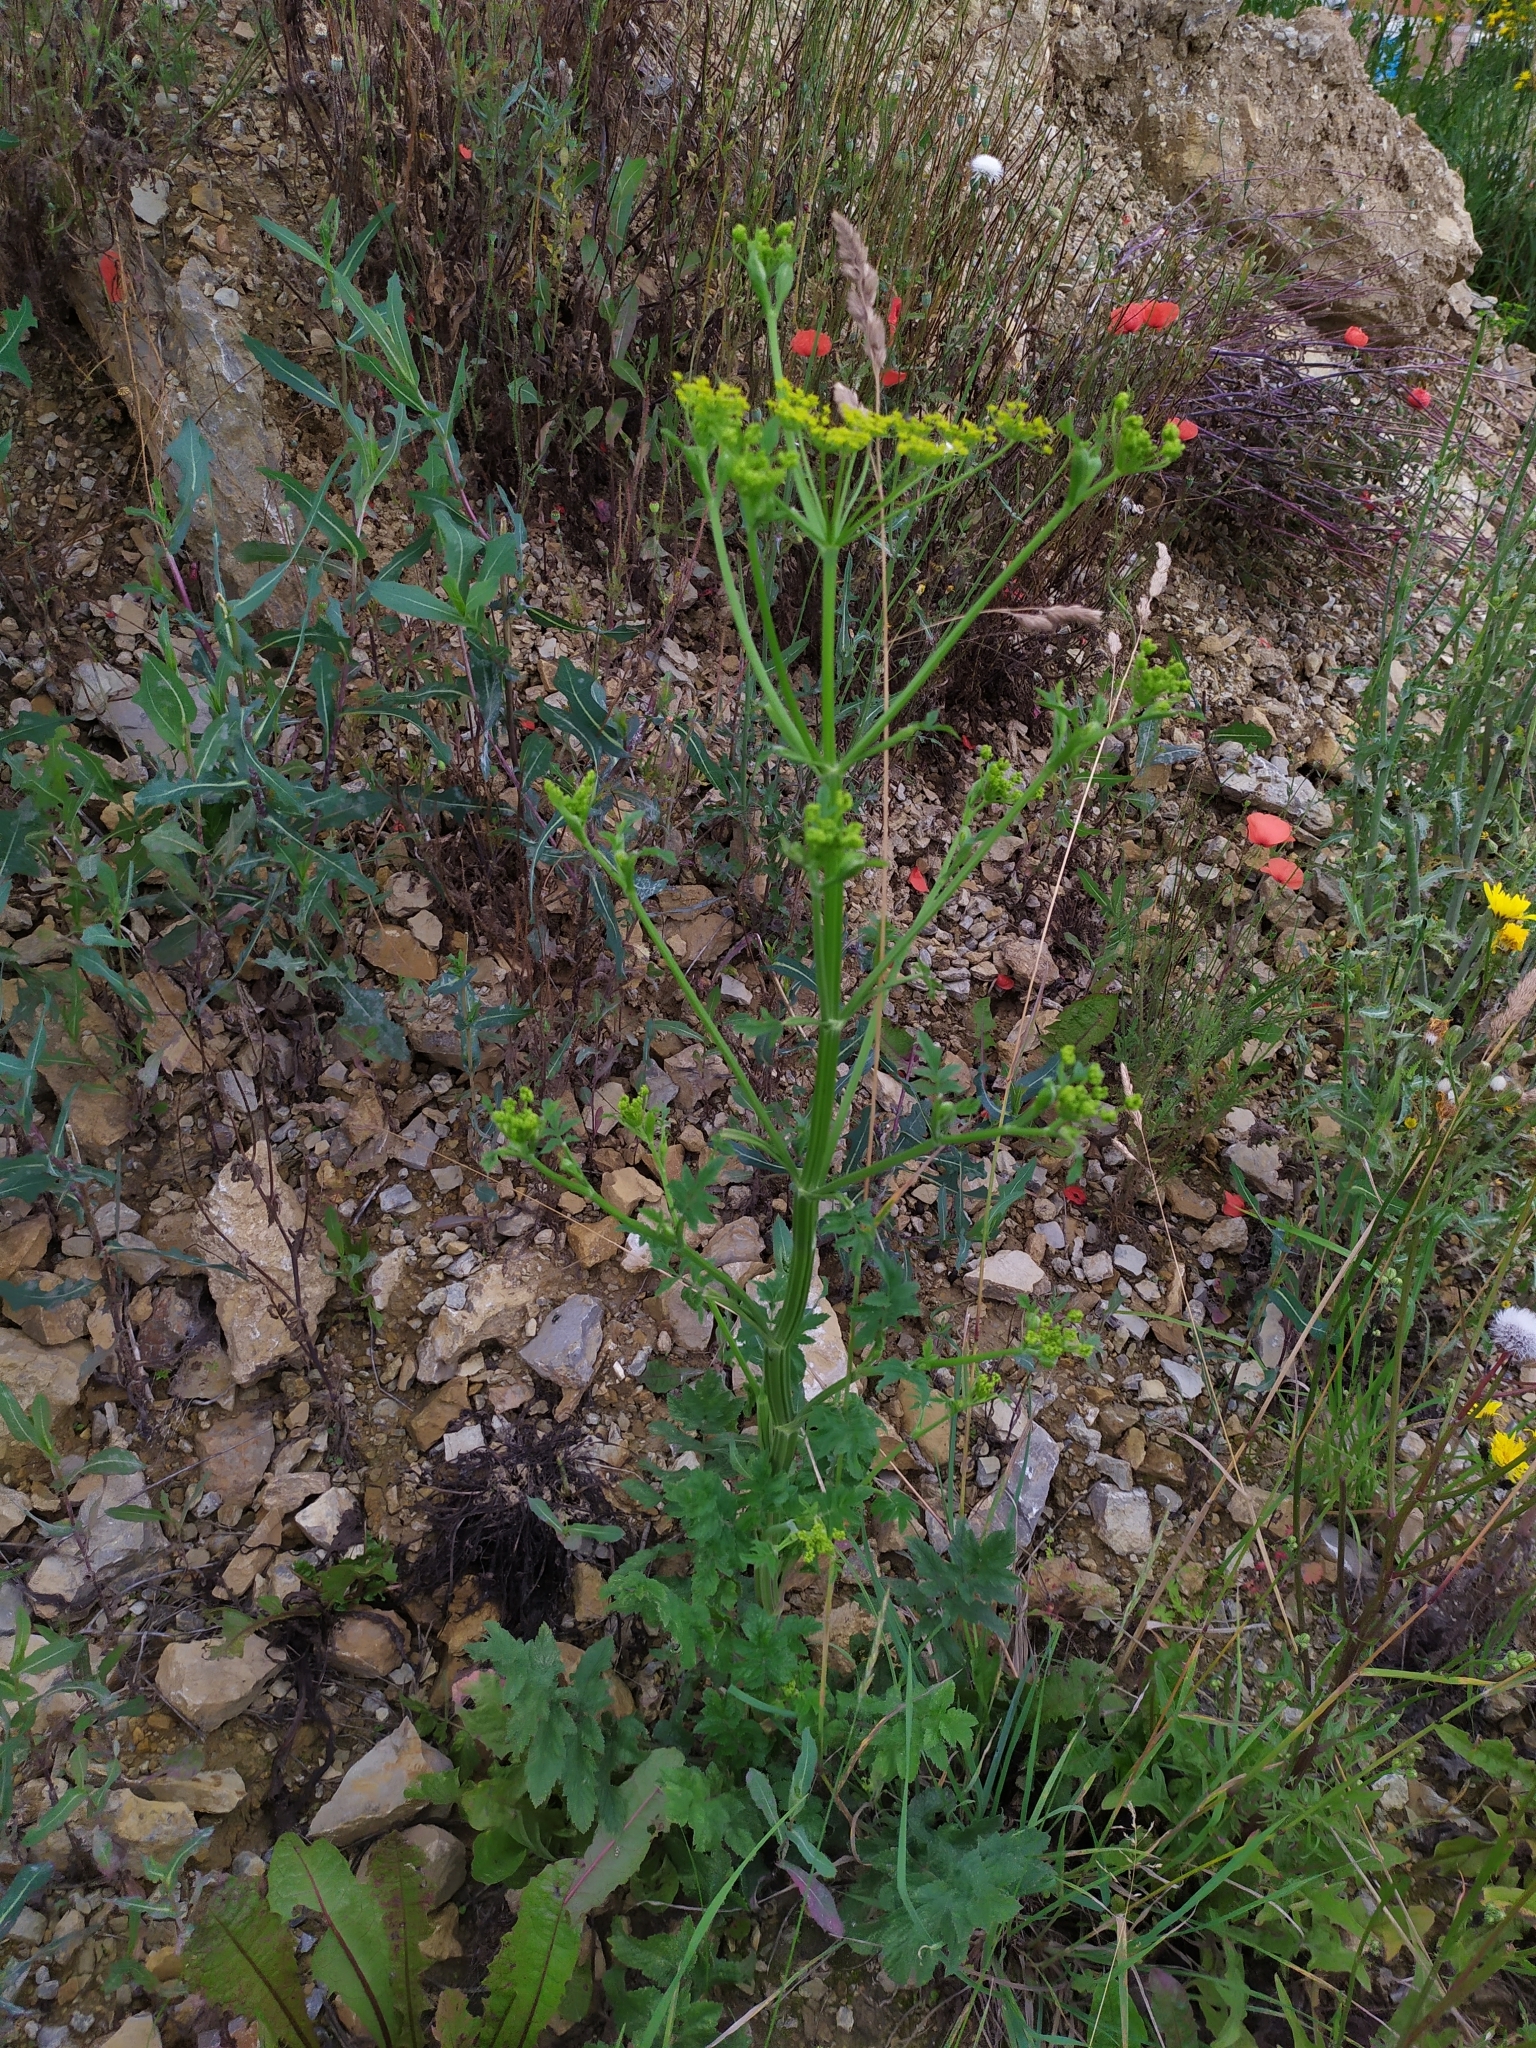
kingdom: Plantae
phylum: Tracheophyta
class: Magnoliopsida
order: Apiales
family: Apiaceae
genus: Pastinaca
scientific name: Pastinaca sativa
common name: Wild parsnip
